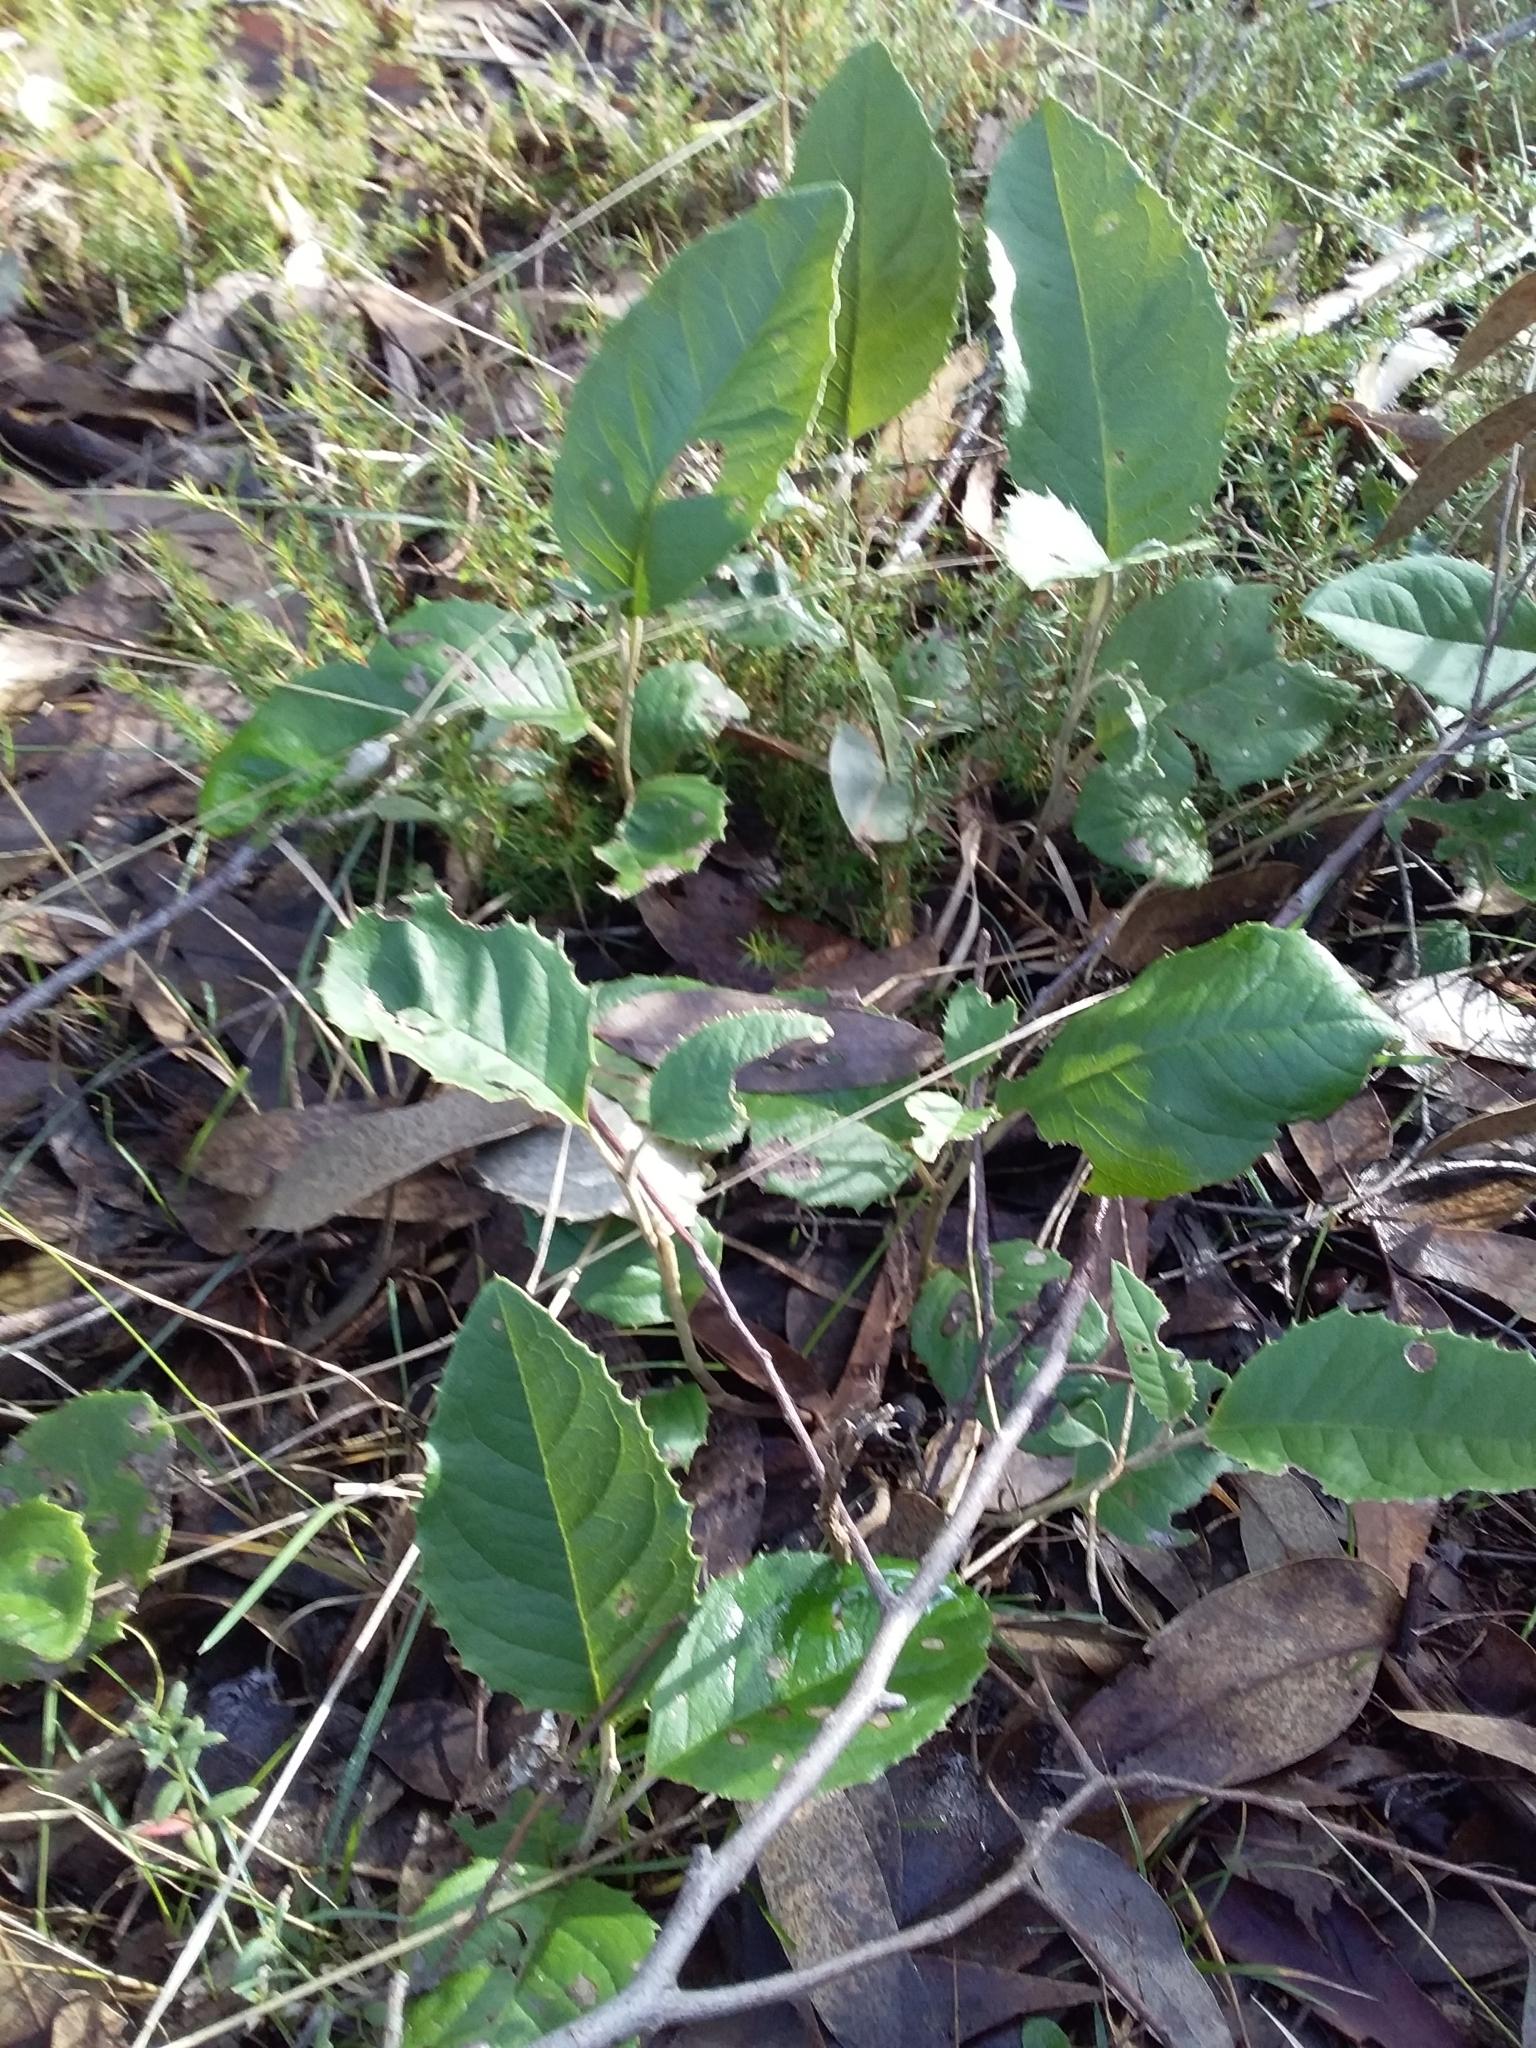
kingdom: Plantae
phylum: Tracheophyta
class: Magnoliopsida
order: Asterales
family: Asteraceae
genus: Olearia
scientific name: Olearia grandiflora
